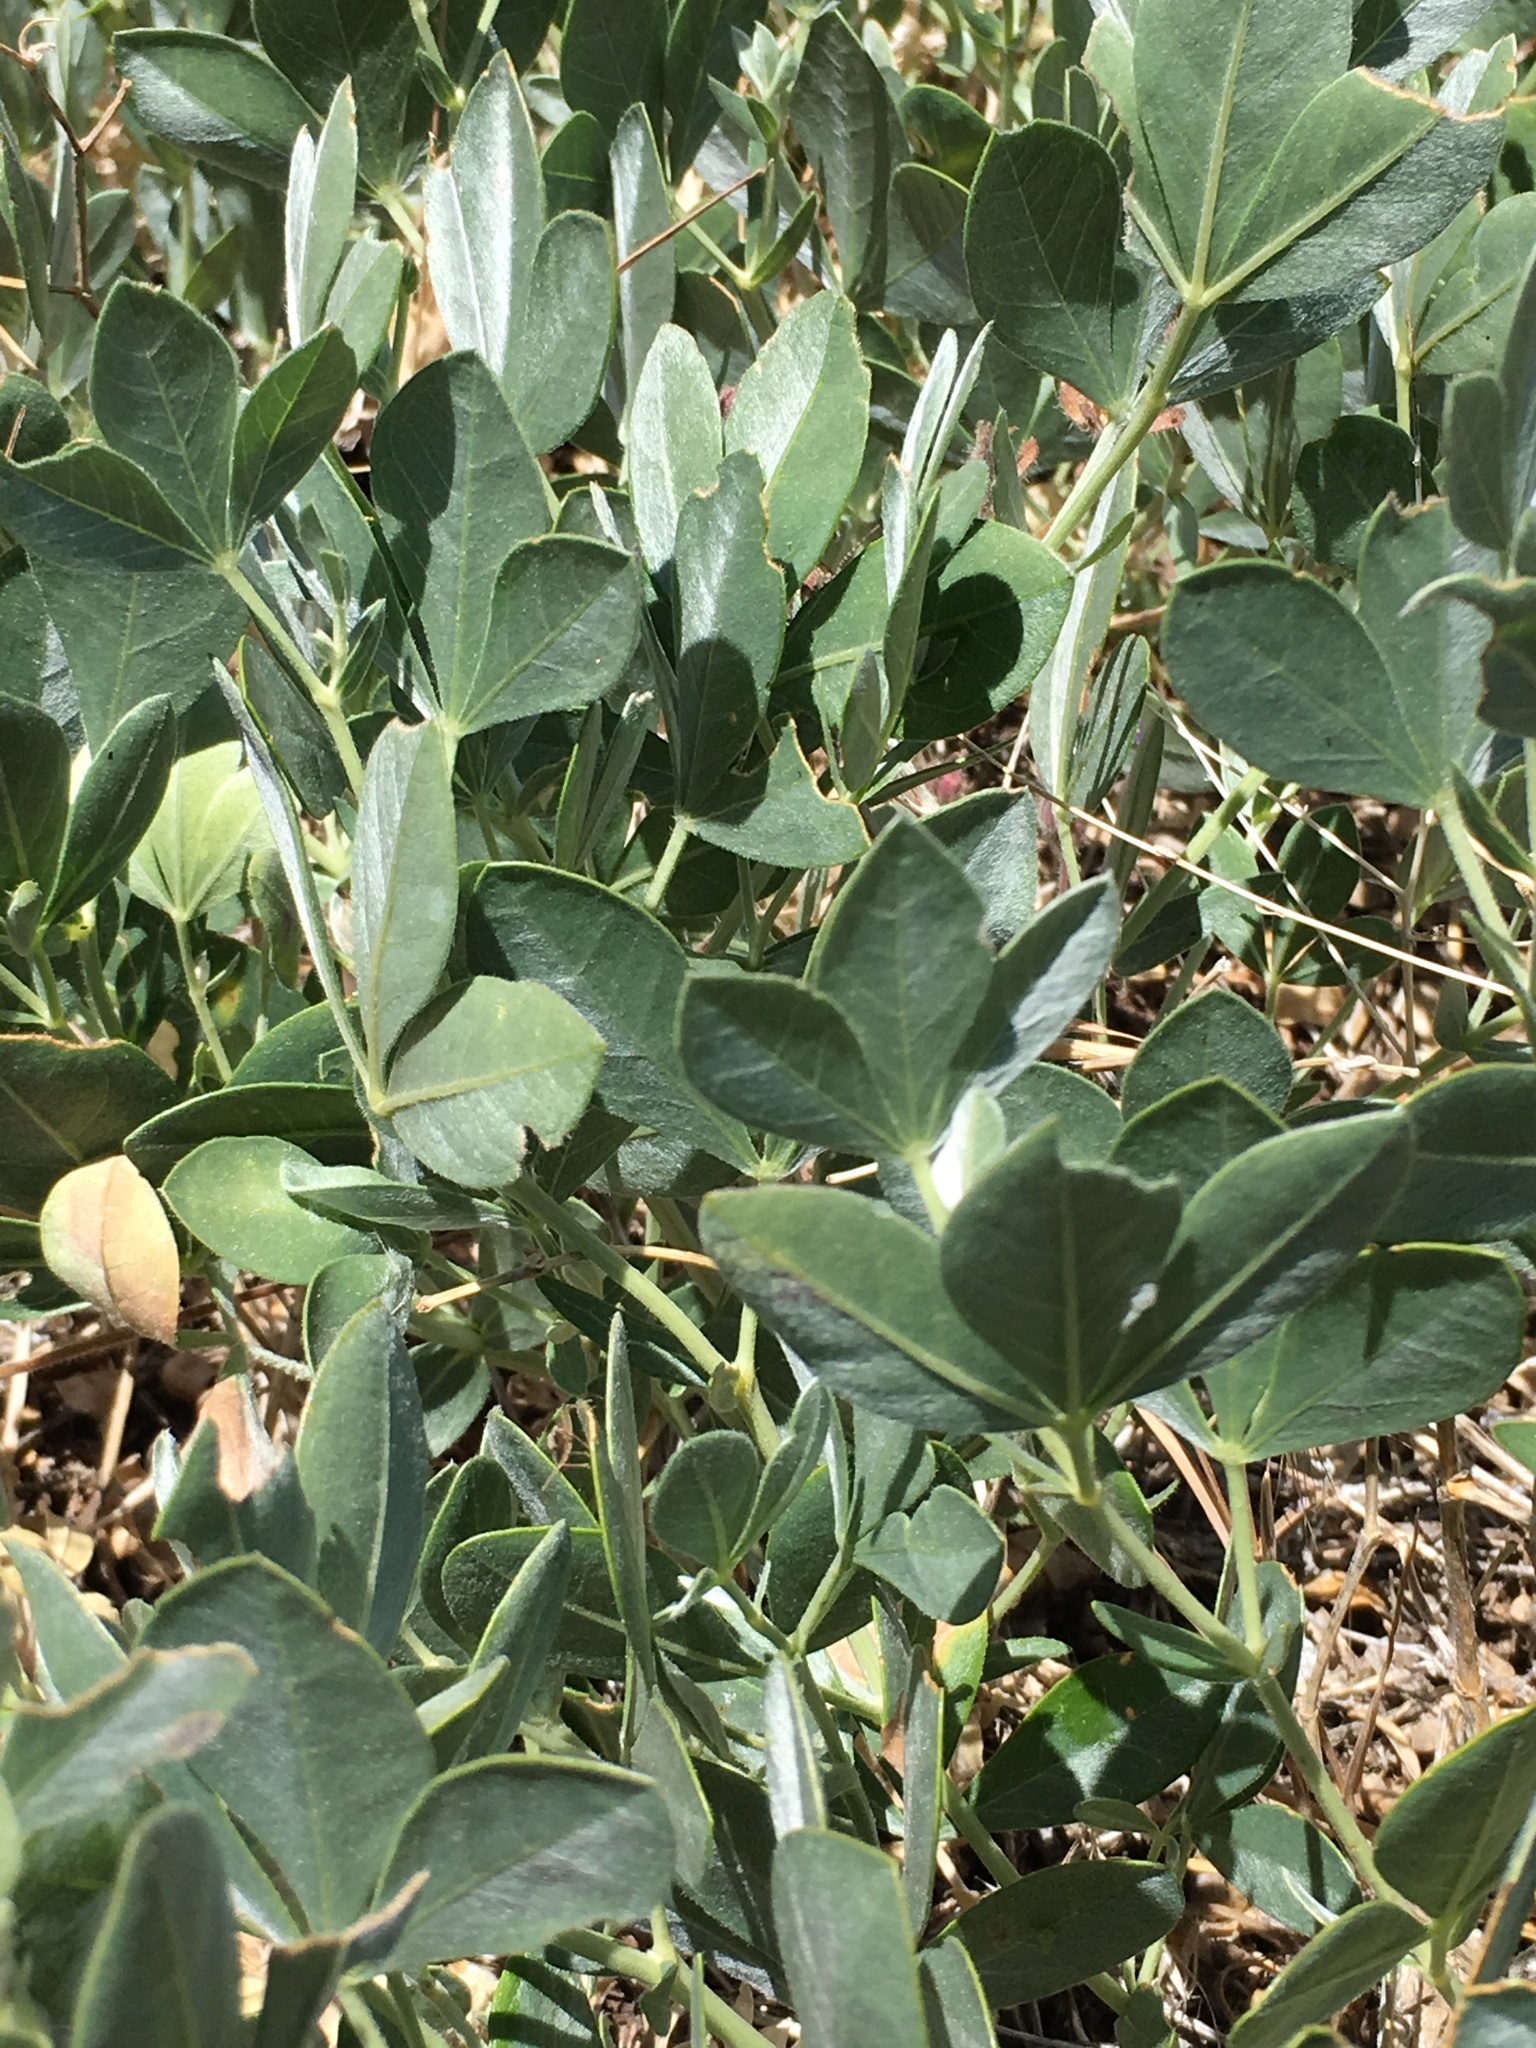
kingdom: Plantae
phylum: Tracheophyta
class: Magnoliopsida
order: Fabales
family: Fabaceae
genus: Thermopsis
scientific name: Thermopsis californica
